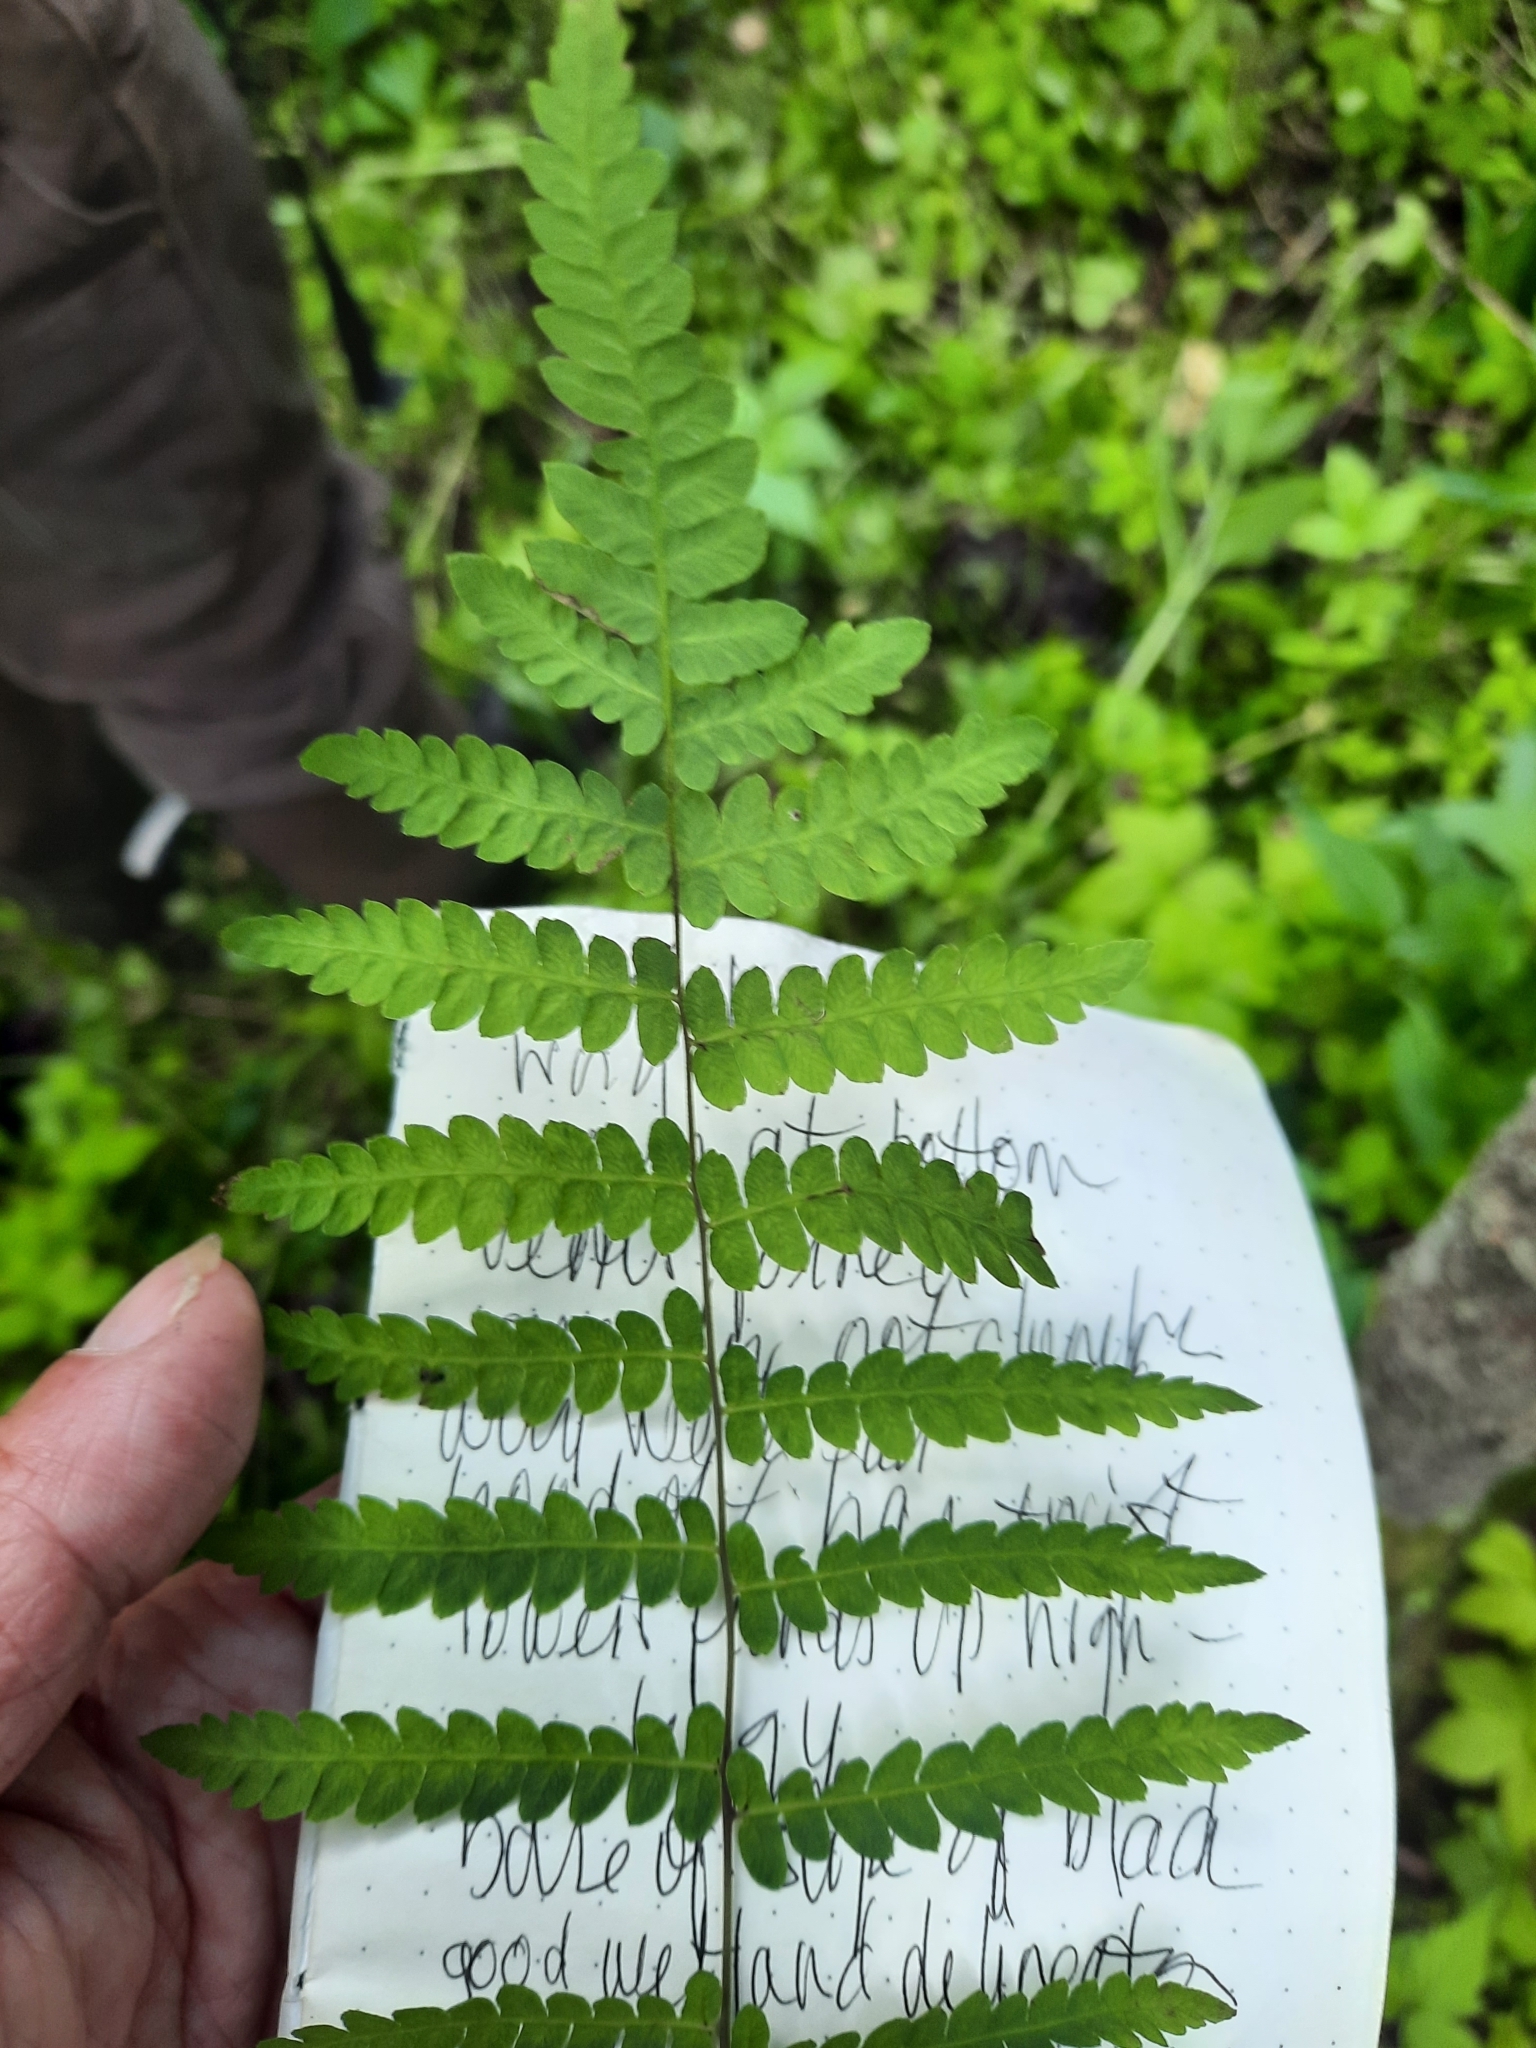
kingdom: Plantae
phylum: Tracheophyta
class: Polypodiopsida
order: Polypodiales
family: Thelypteridaceae
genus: Thelypteris
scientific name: Thelypteris palustris
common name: Marsh fern
